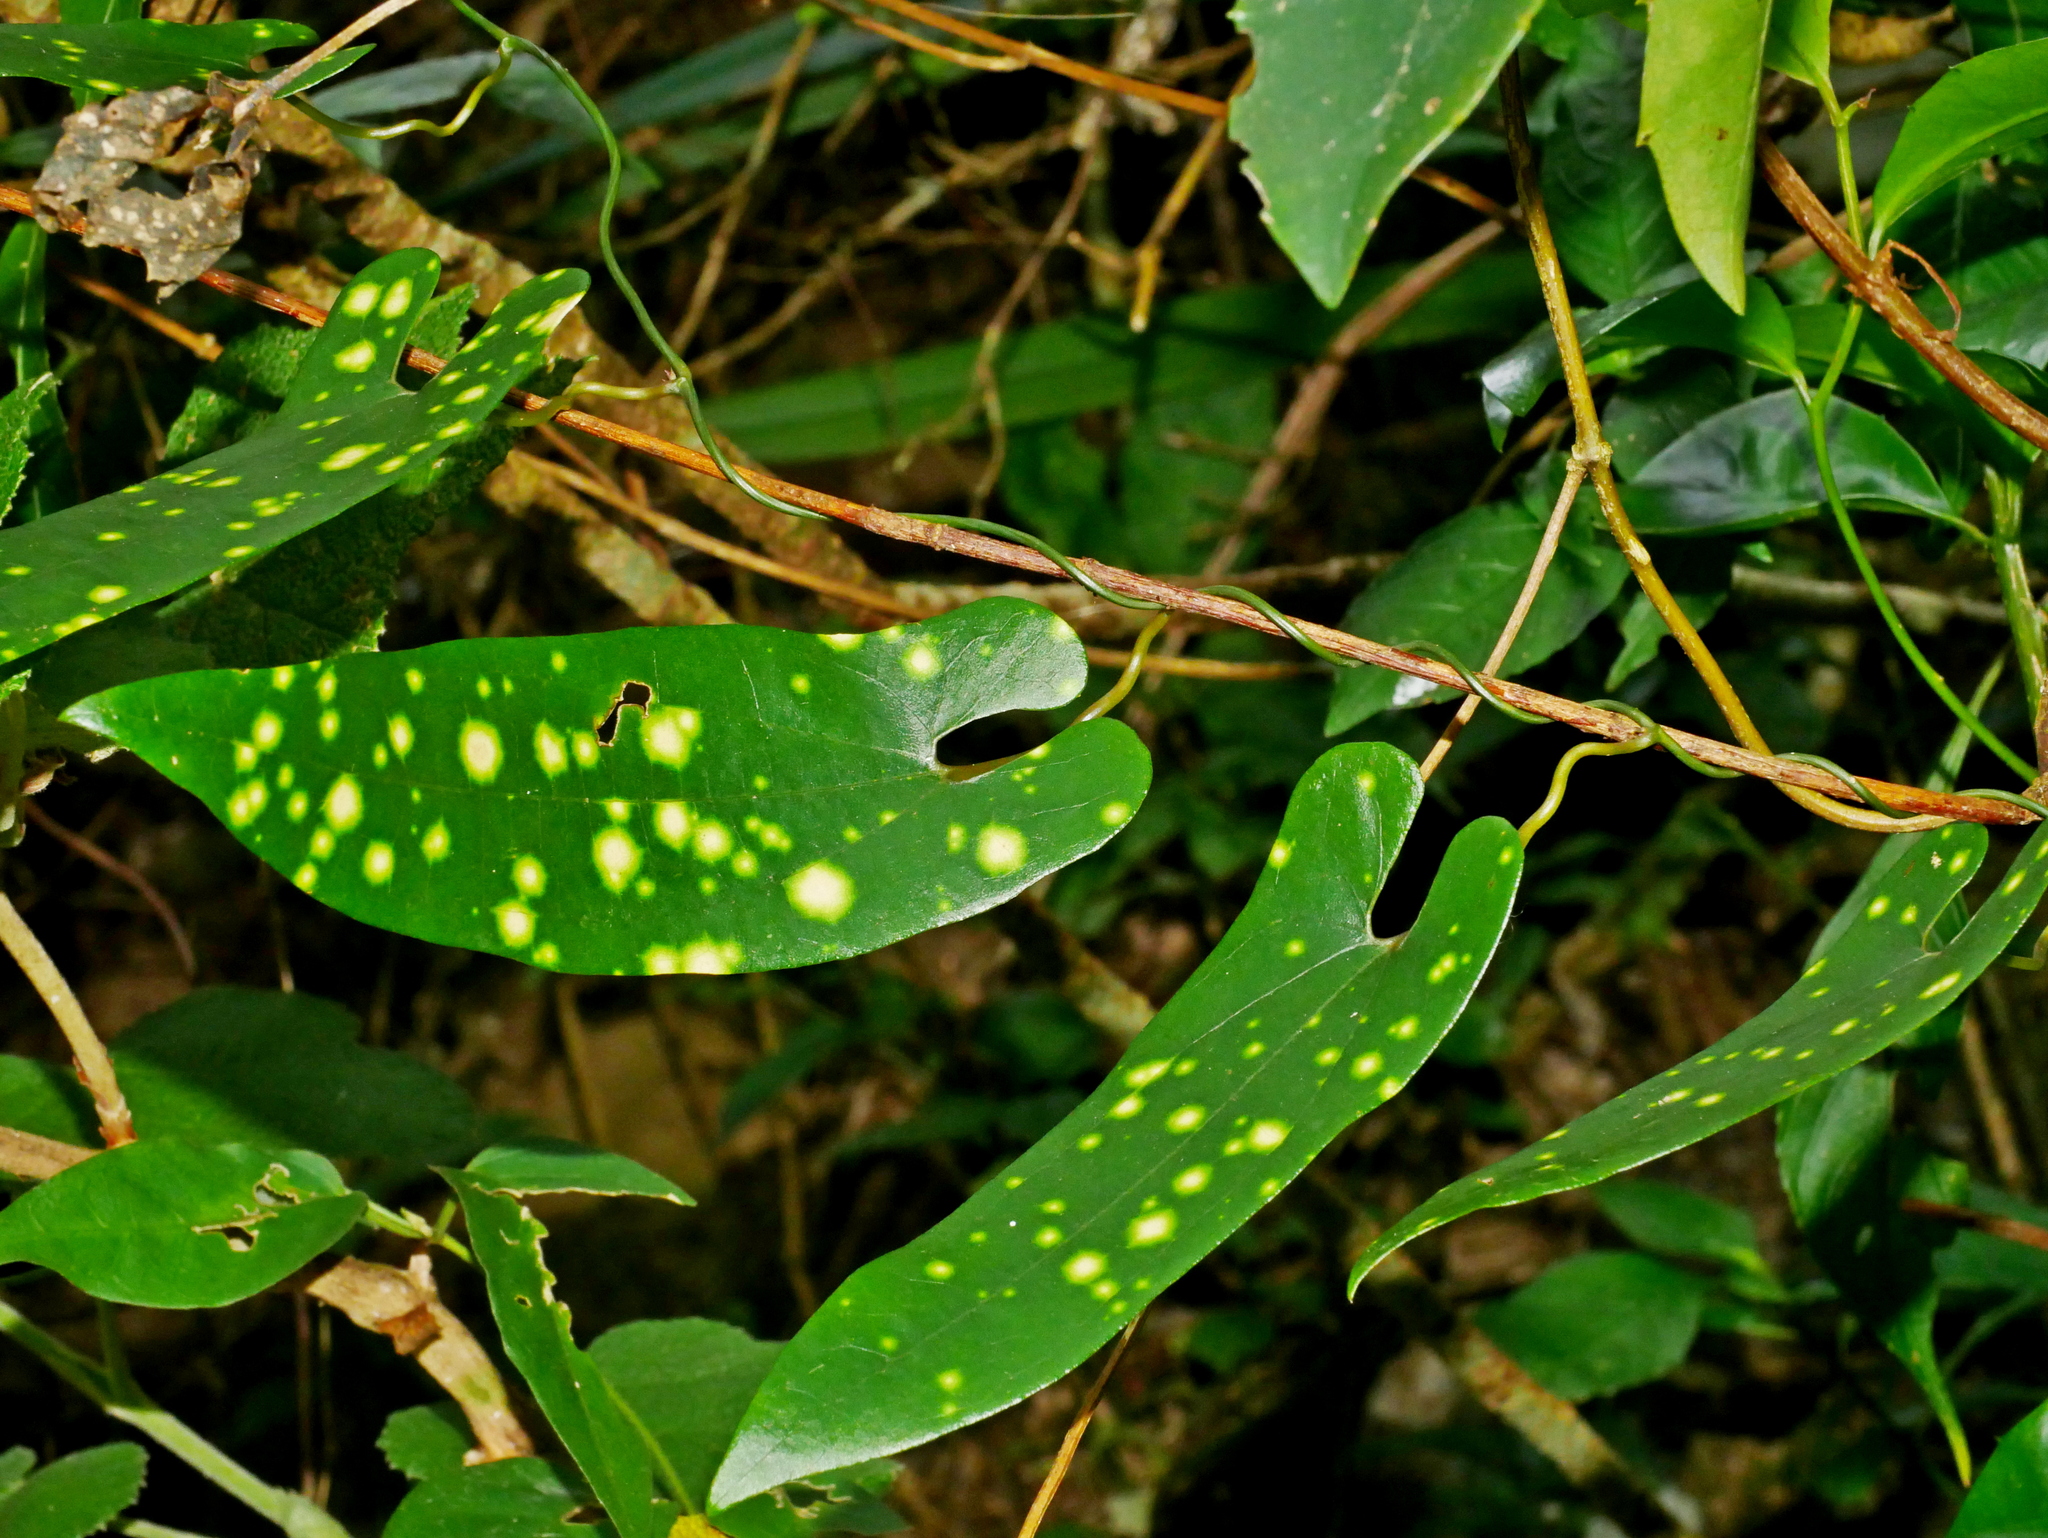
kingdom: Plantae
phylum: Tracheophyta
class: Magnoliopsida
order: Piperales
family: Aristolochiaceae
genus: Aristolochia
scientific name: Aristolochia foveolata
